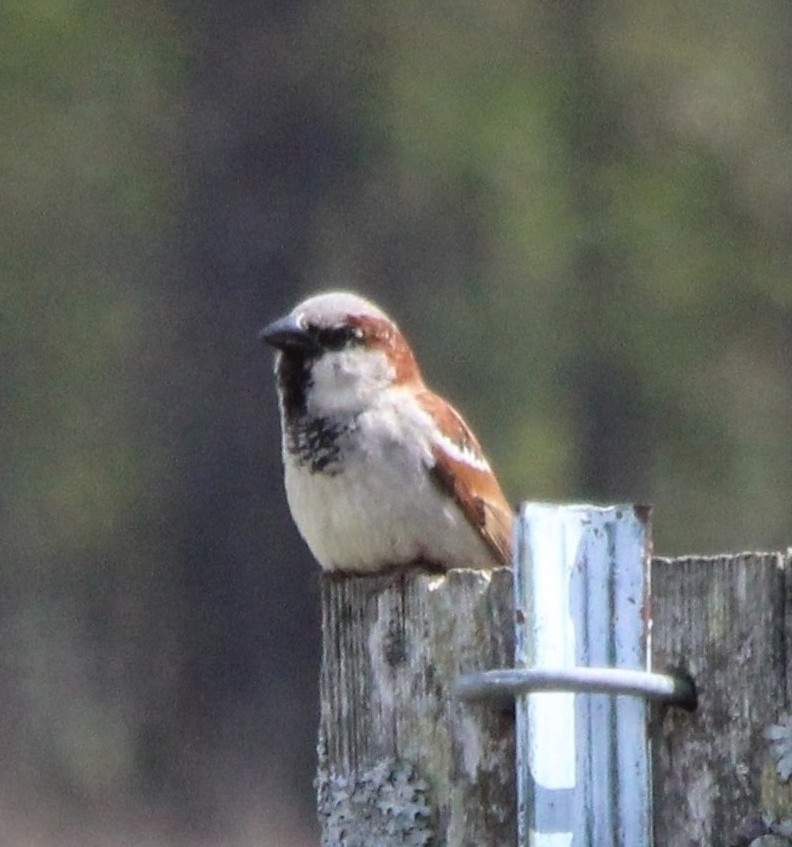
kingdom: Animalia
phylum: Chordata
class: Aves
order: Passeriformes
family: Passeridae
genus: Passer
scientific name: Passer domesticus
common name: House sparrow
